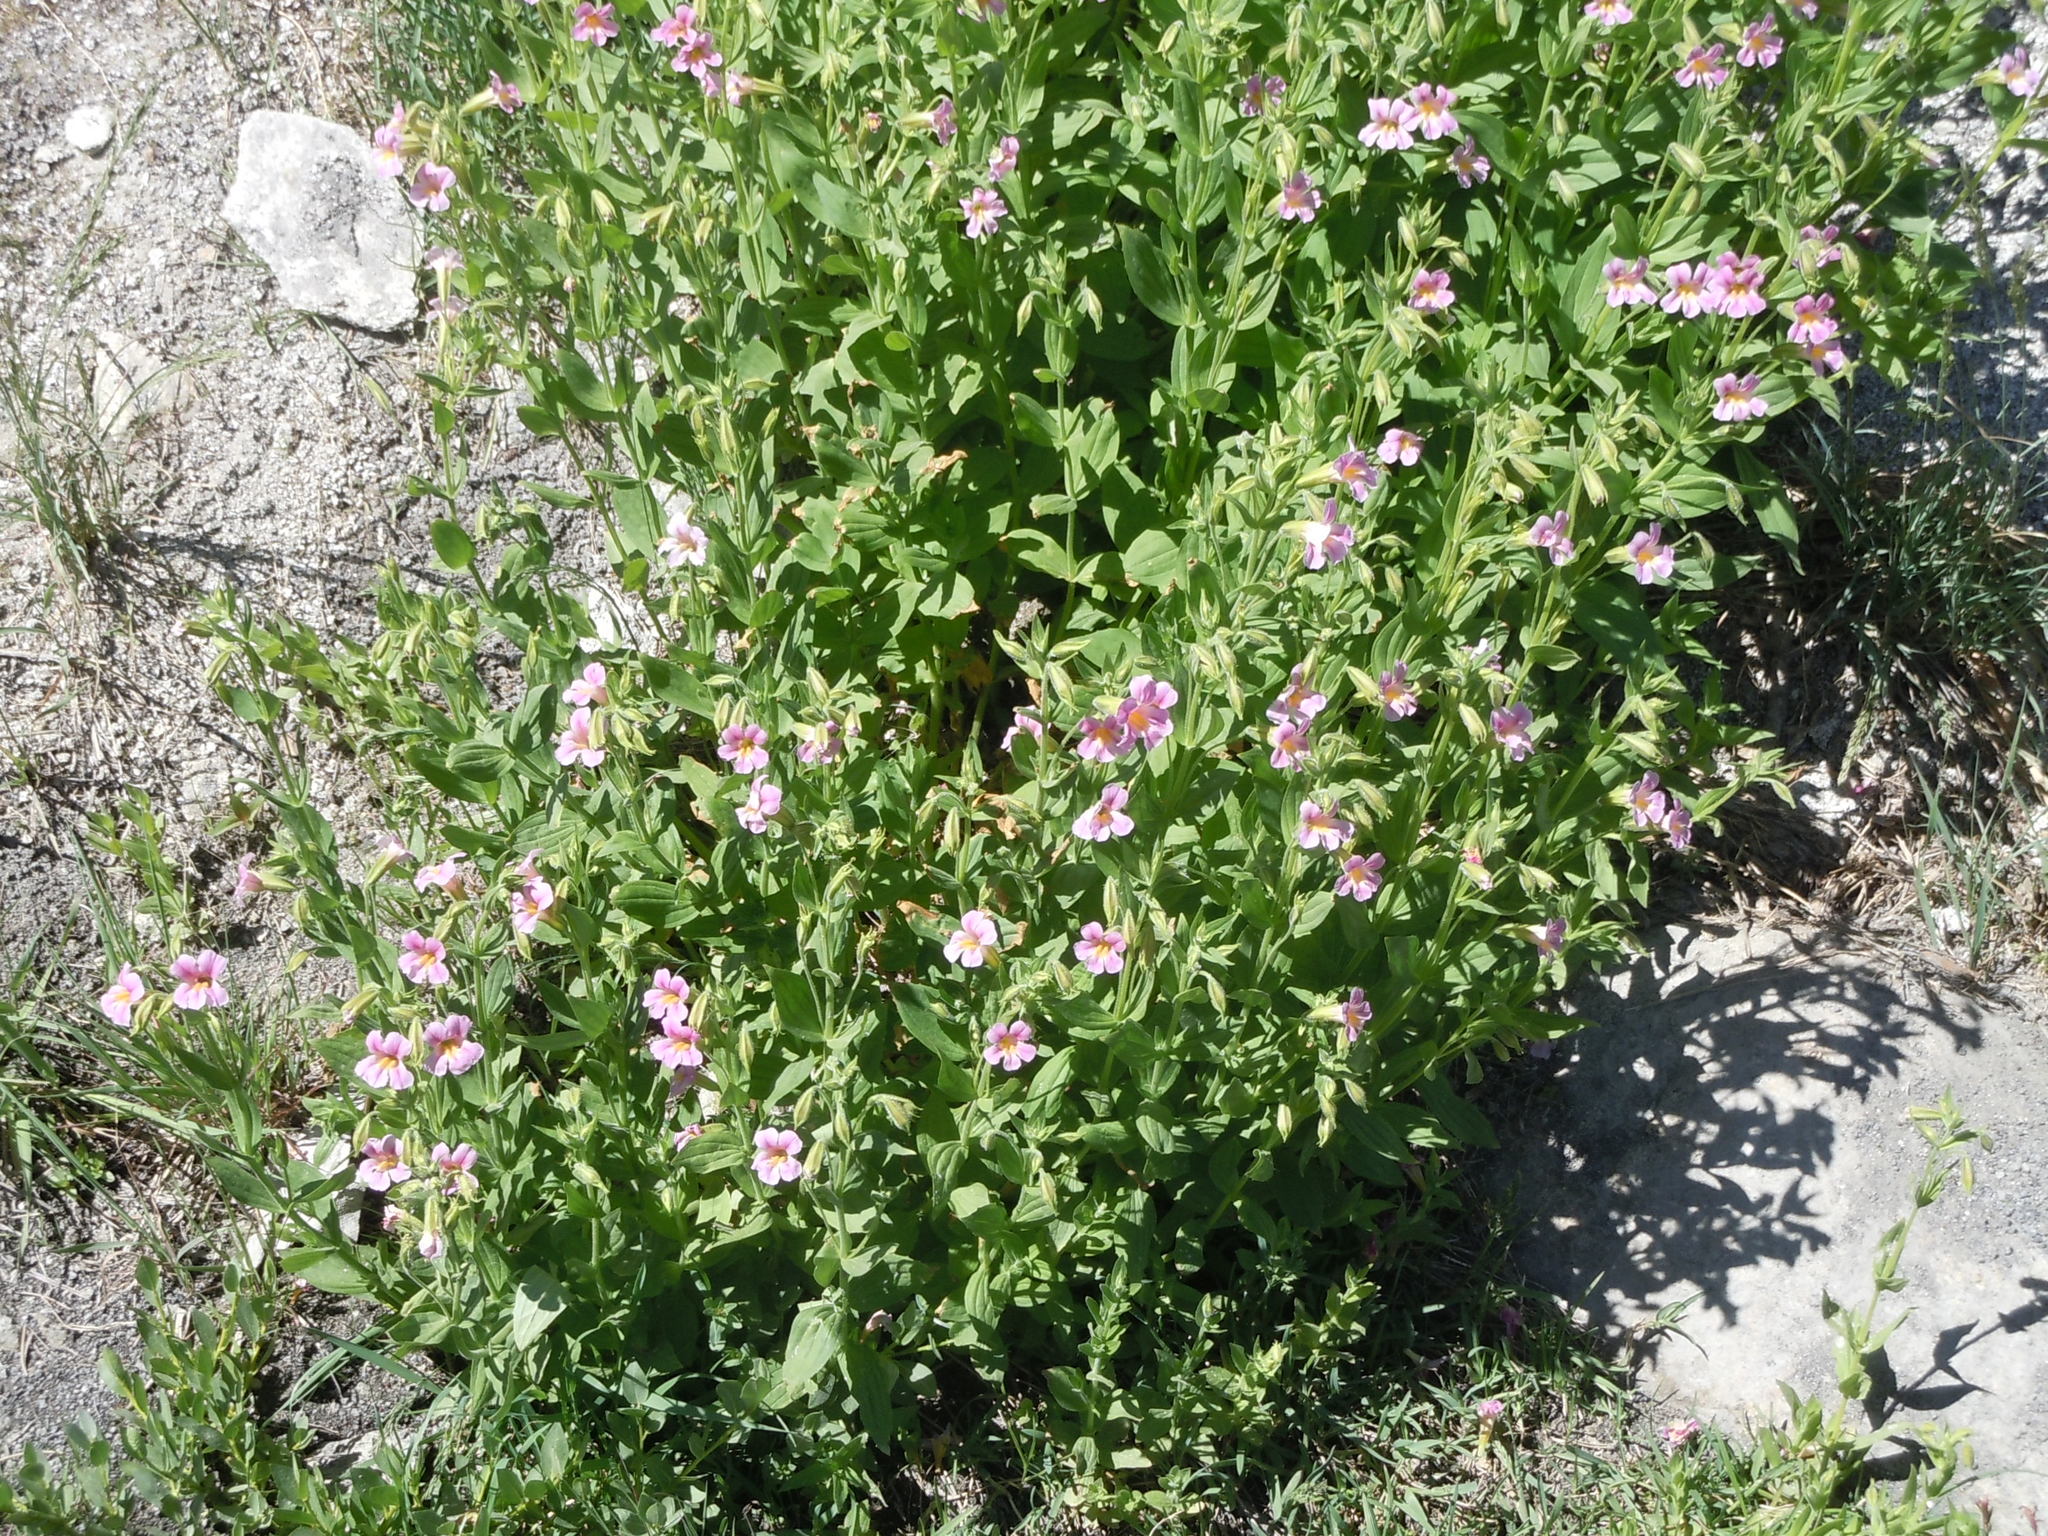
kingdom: Plantae
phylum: Tracheophyta
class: Magnoliopsida
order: Lamiales
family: Phrymaceae
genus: Erythranthe
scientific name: Erythranthe erubescens
